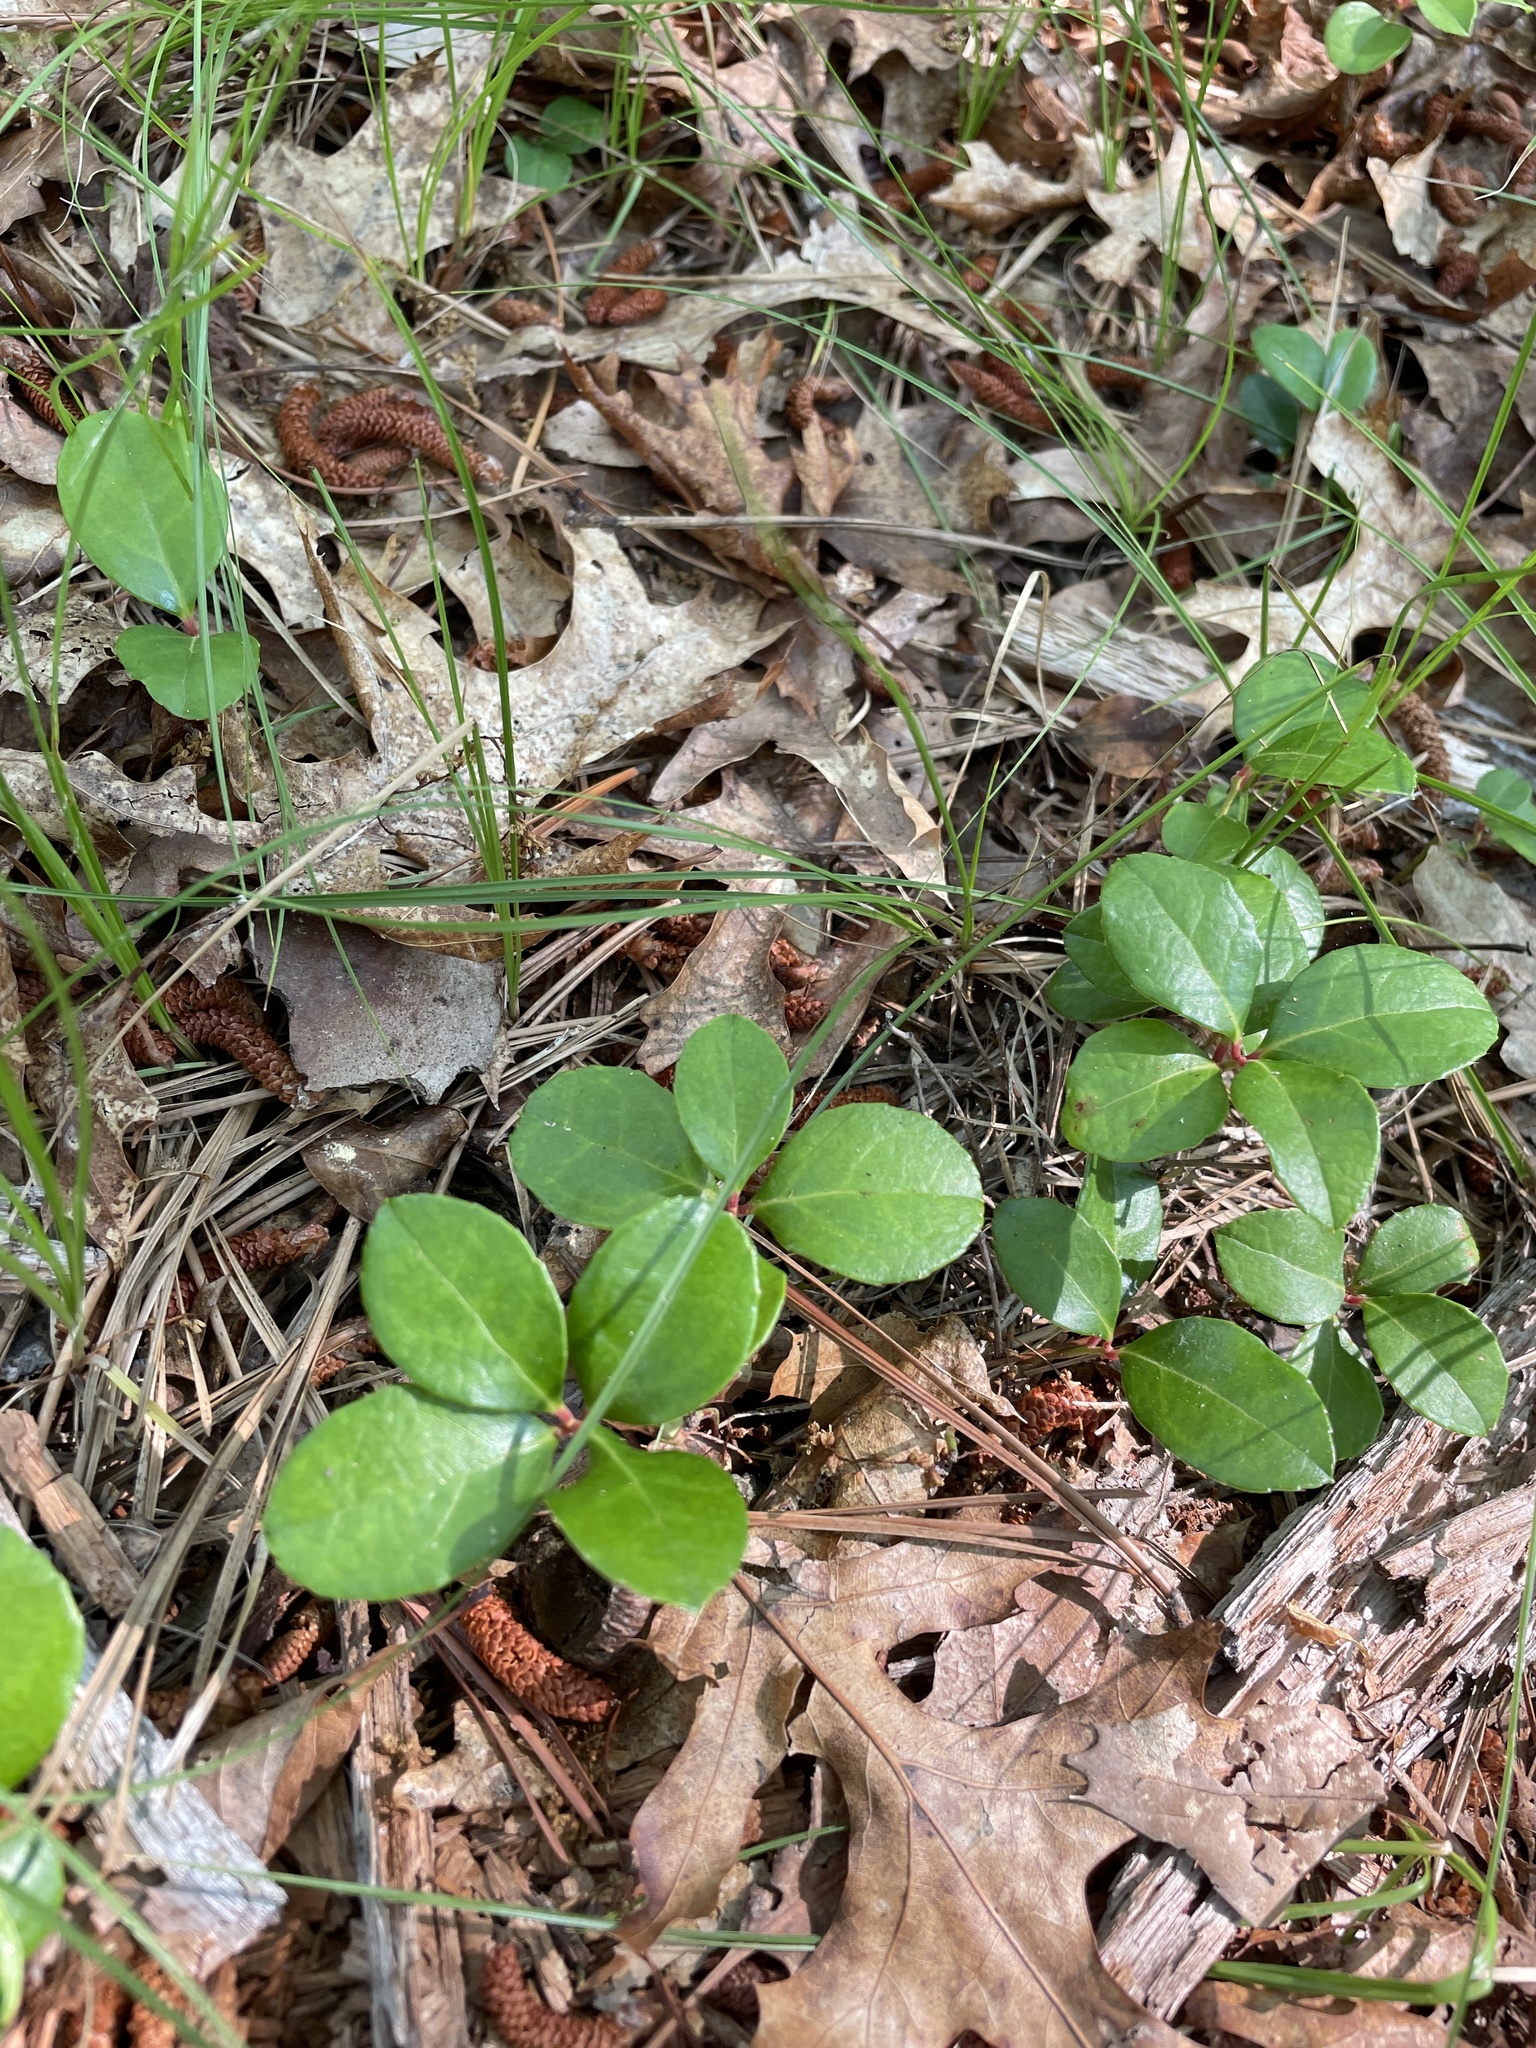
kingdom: Plantae
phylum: Tracheophyta
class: Magnoliopsida
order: Ericales
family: Ericaceae
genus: Gaultheria
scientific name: Gaultheria procumbens
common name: Checkerberry
